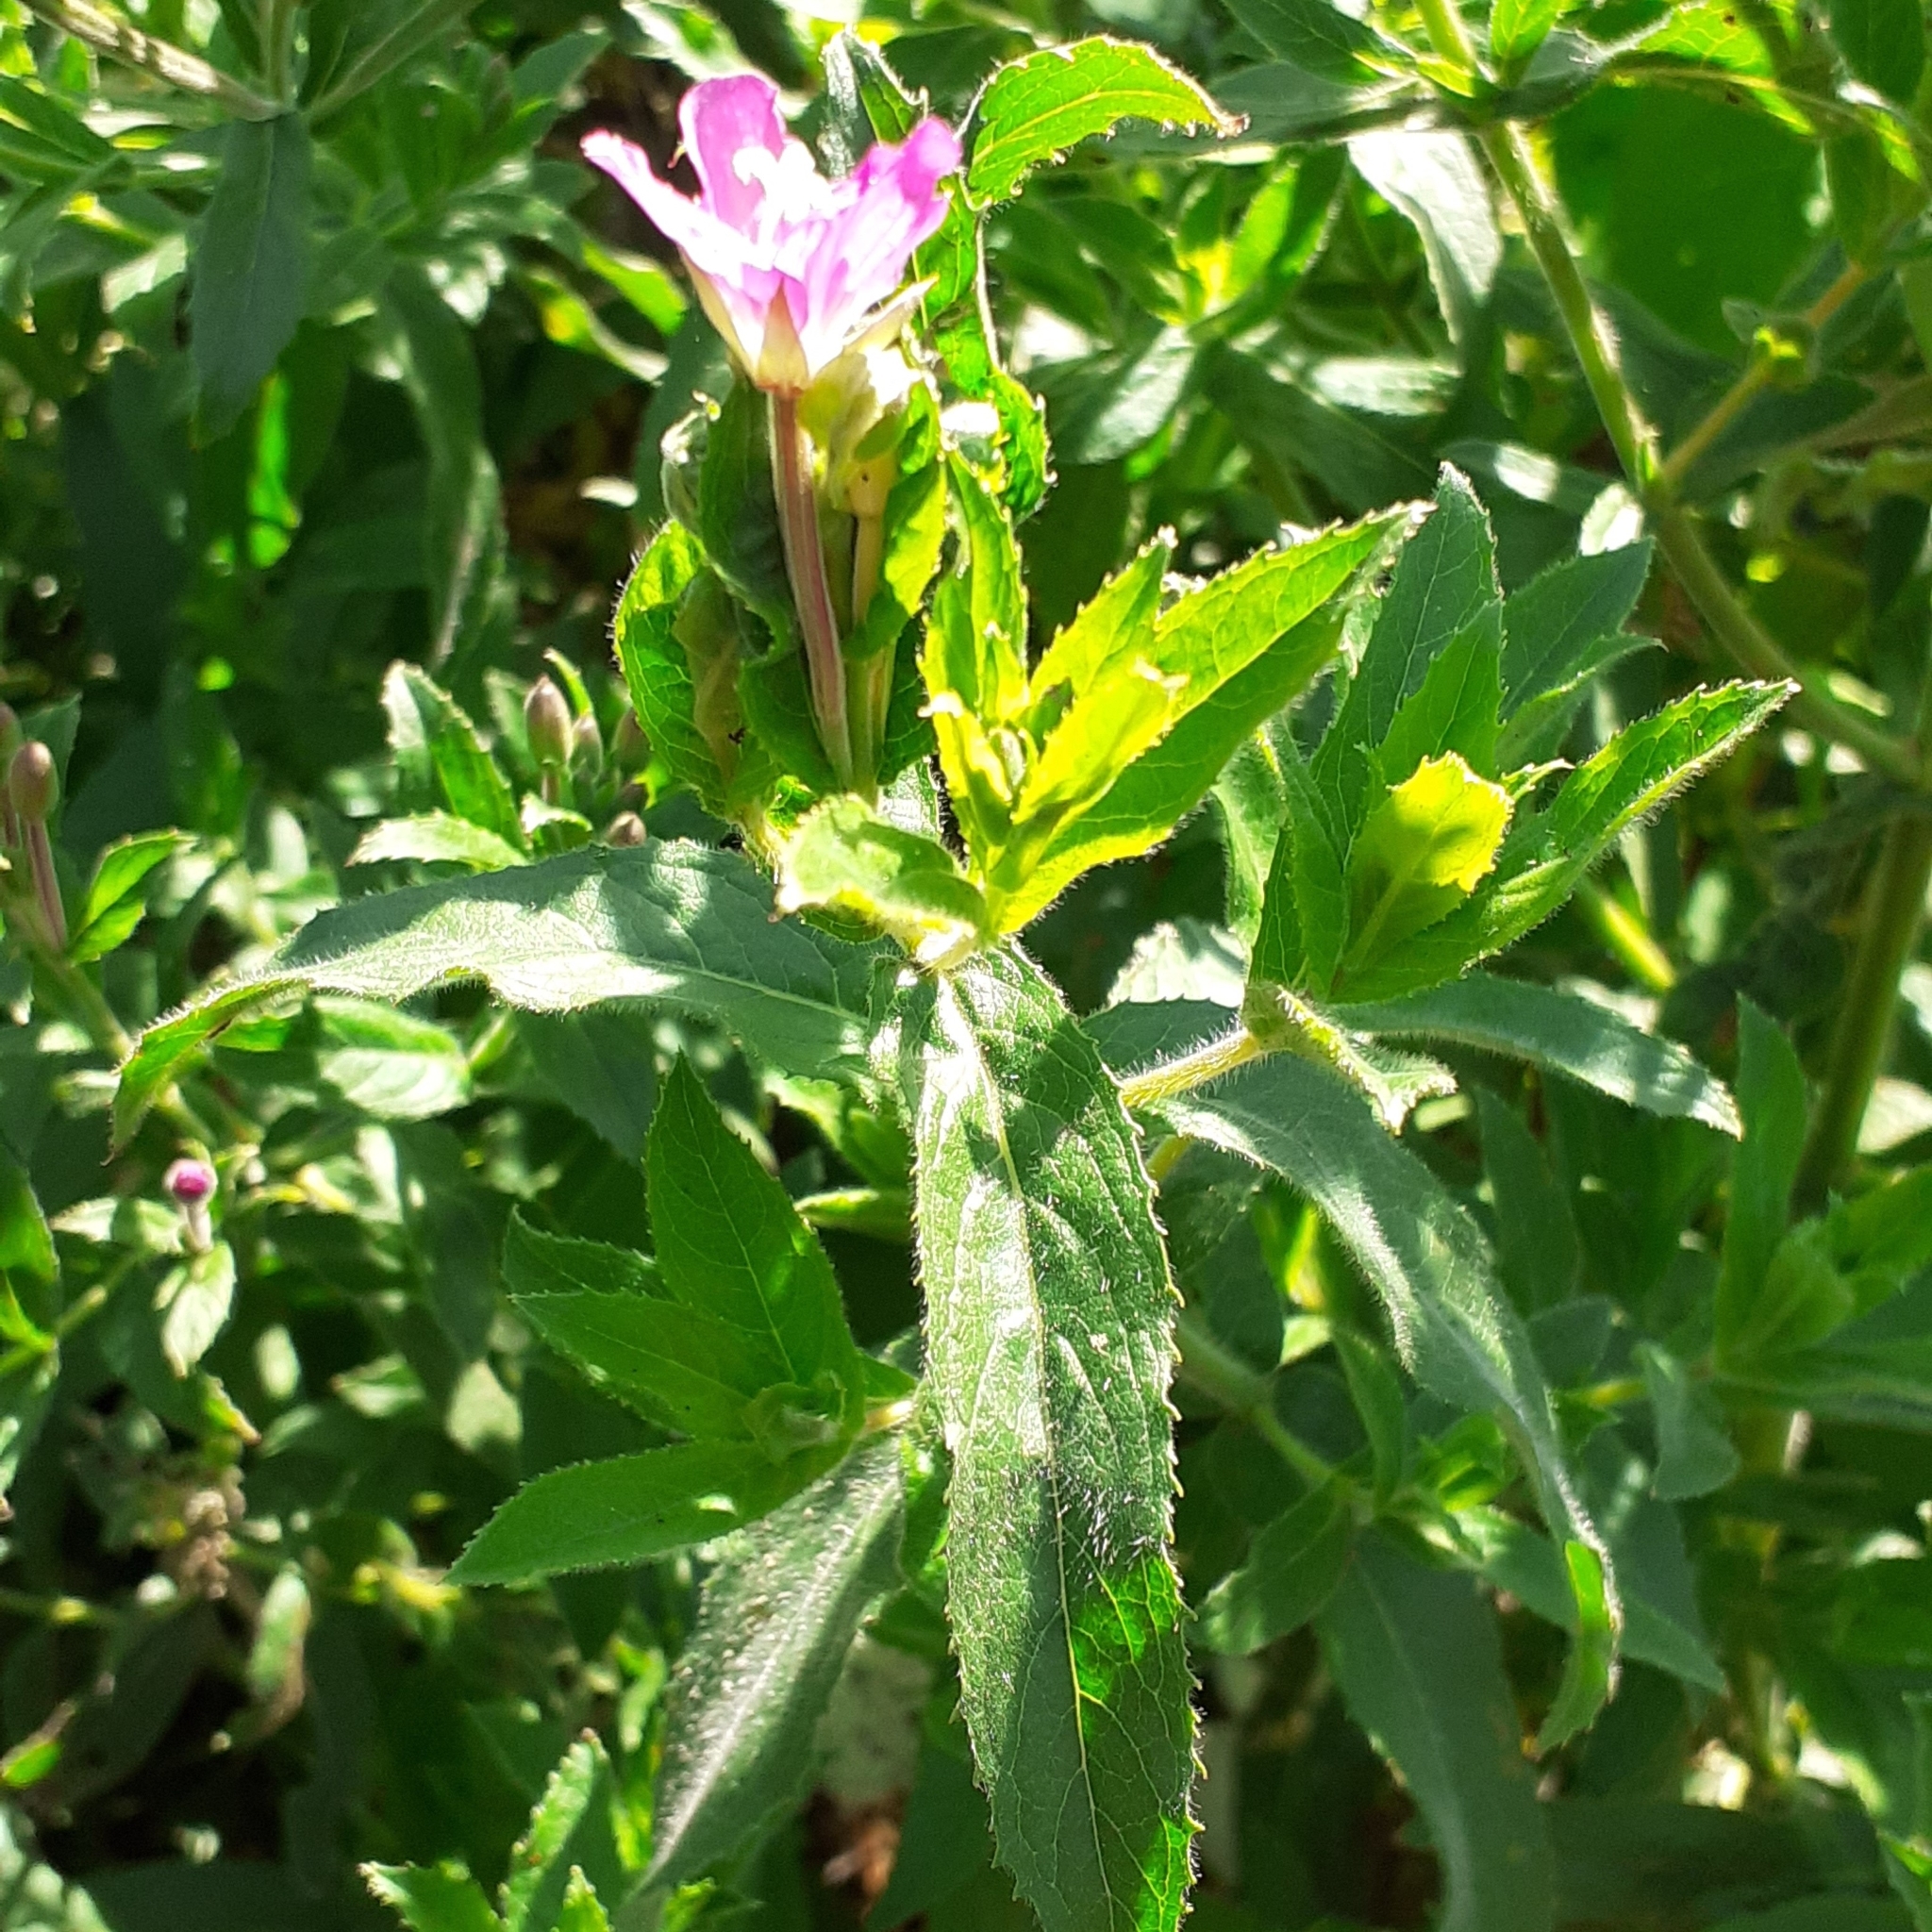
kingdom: Plantae
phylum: Tracheophyta
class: Magnoliopsida
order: Myrtales
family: Onagraceae
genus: Epilobium
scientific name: Epilobium hirsutum
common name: Great willowherb
